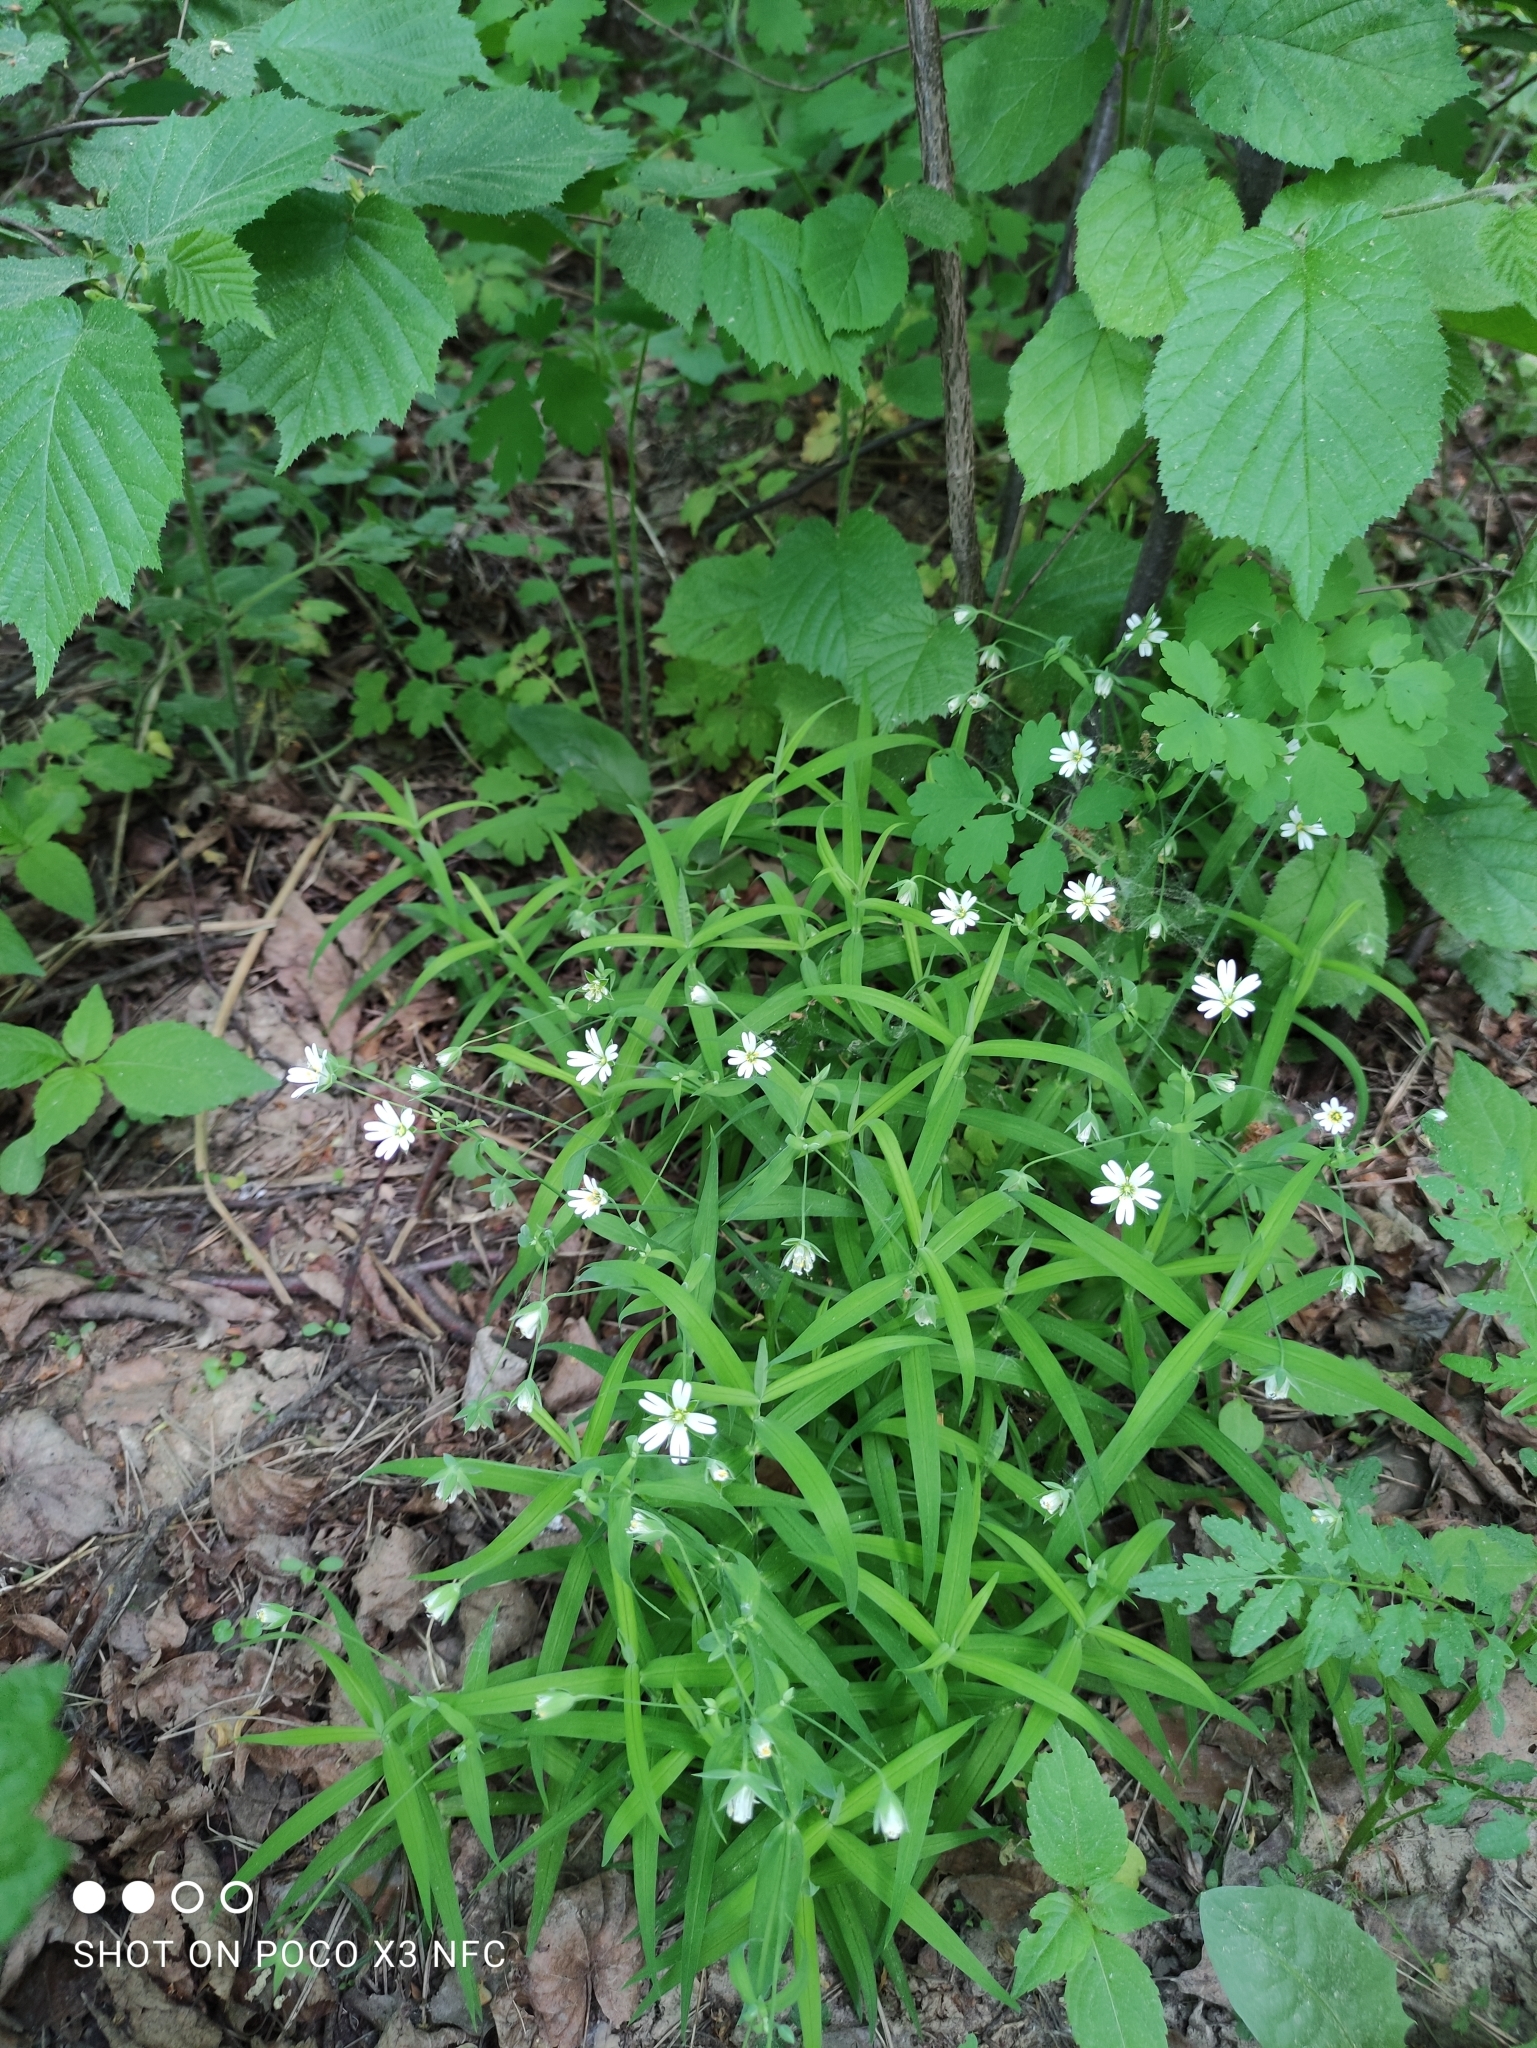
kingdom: Plantae
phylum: Tracheophyta
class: Magnoliopsida
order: Caryophyllales
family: Caryophyllaceae
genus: Rabelera
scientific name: Rabelera holostea
